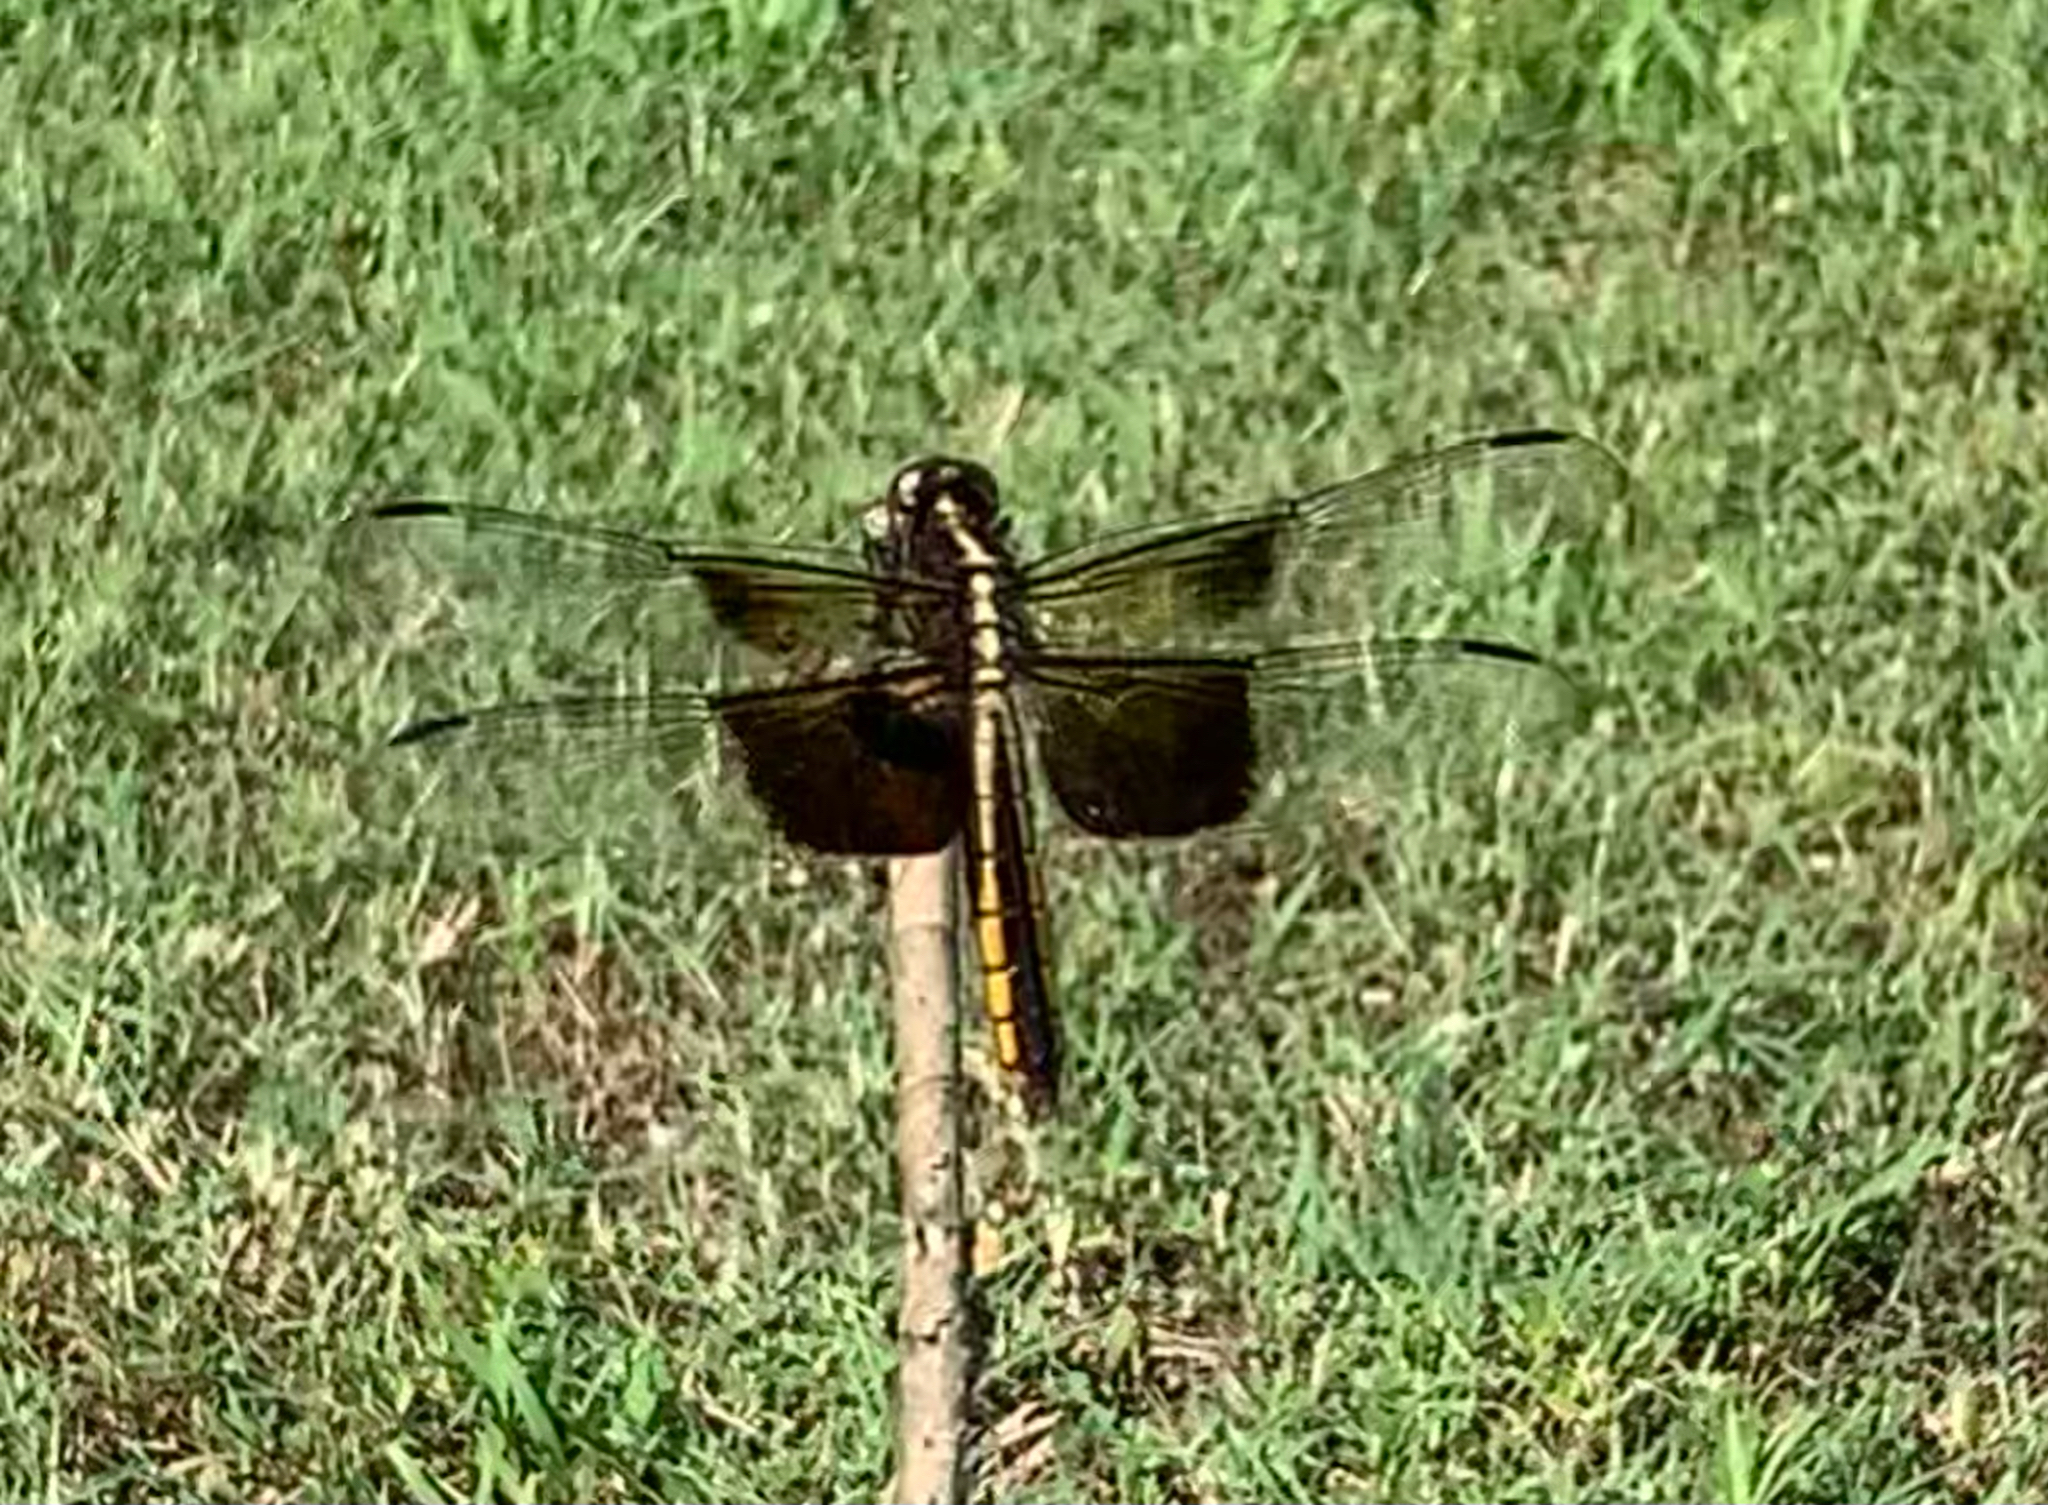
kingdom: Animalia
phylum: Arthropoda
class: Insecta
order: Odonata
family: Libellulidae
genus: Libellula
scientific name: Libellula luctuosa
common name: Widow skimmer
